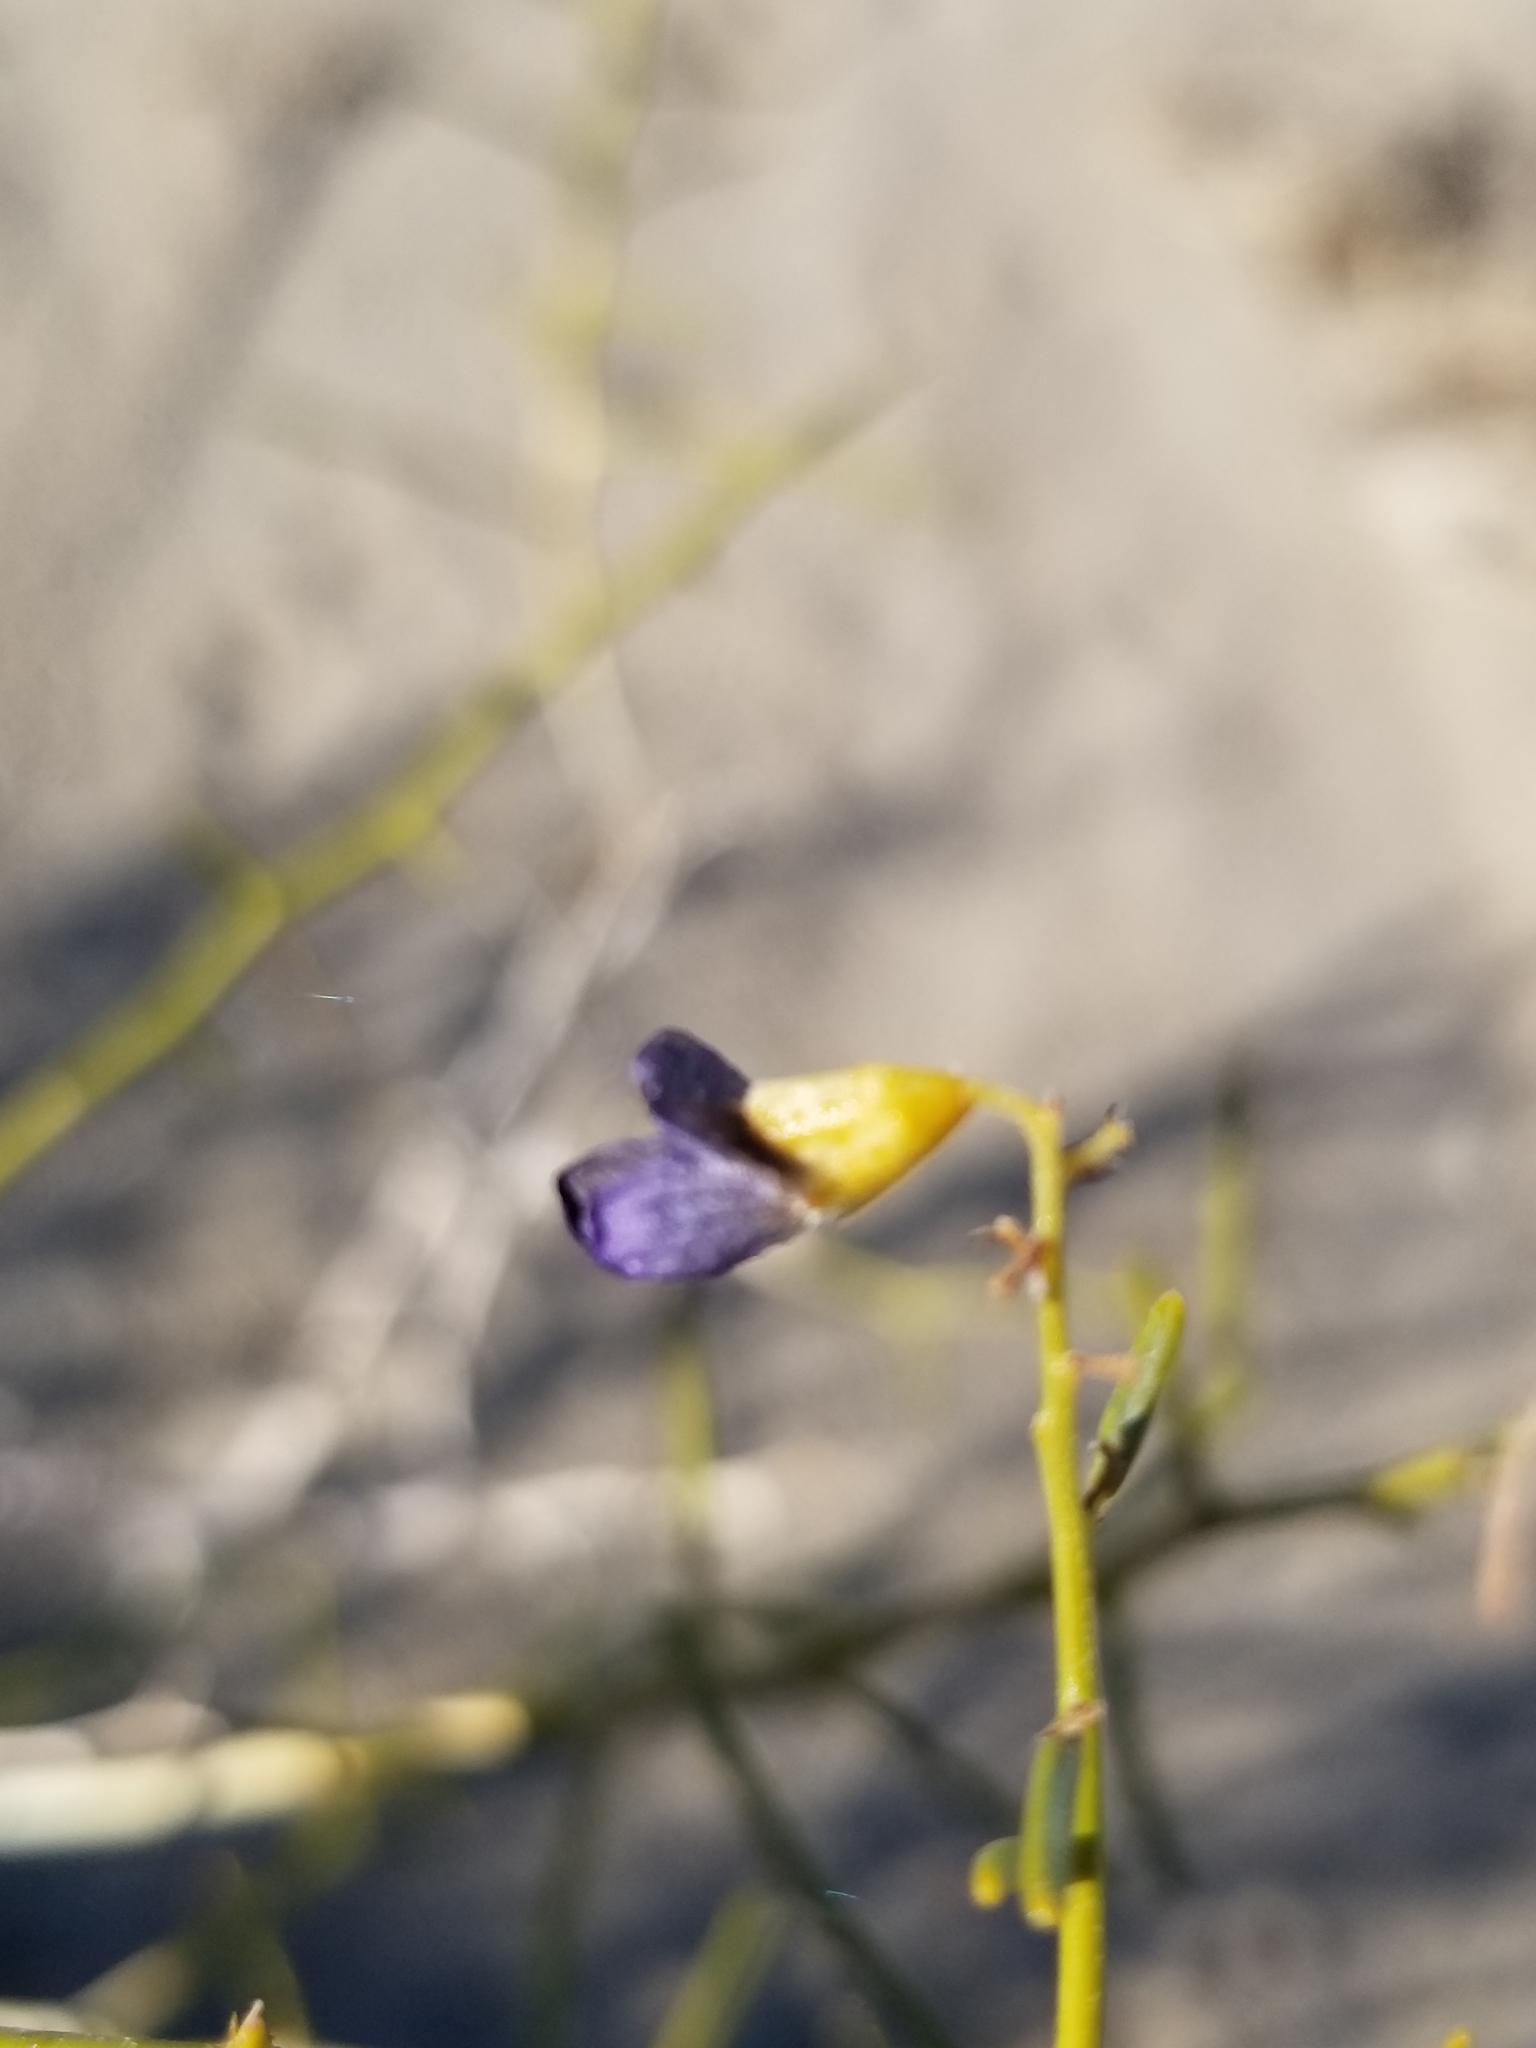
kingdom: Plantae
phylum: Tracheophyta
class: Magnoliopsida
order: Fabales
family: Fabaceae
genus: Psorothamnus
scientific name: Psorothamnus schottii
